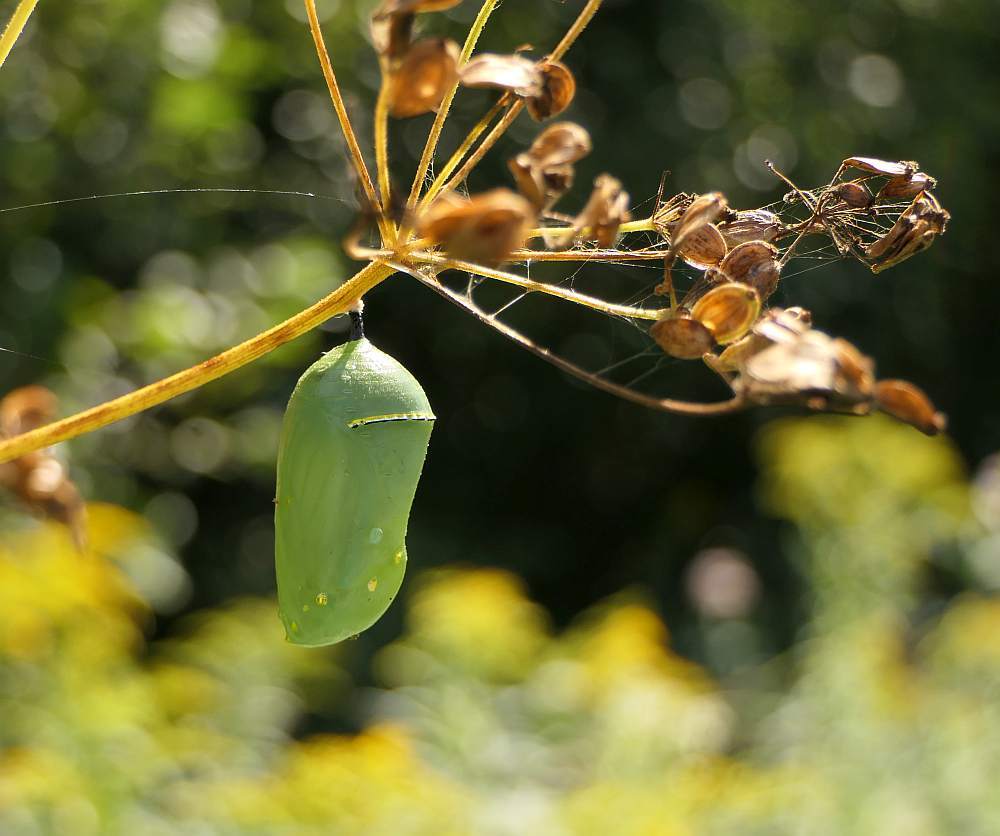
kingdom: Animalia
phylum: Arthropoda
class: Insecta
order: Lepidoptera
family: Nymphalidae
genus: Danaus
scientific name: Danaus plexippus
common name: Monarch
